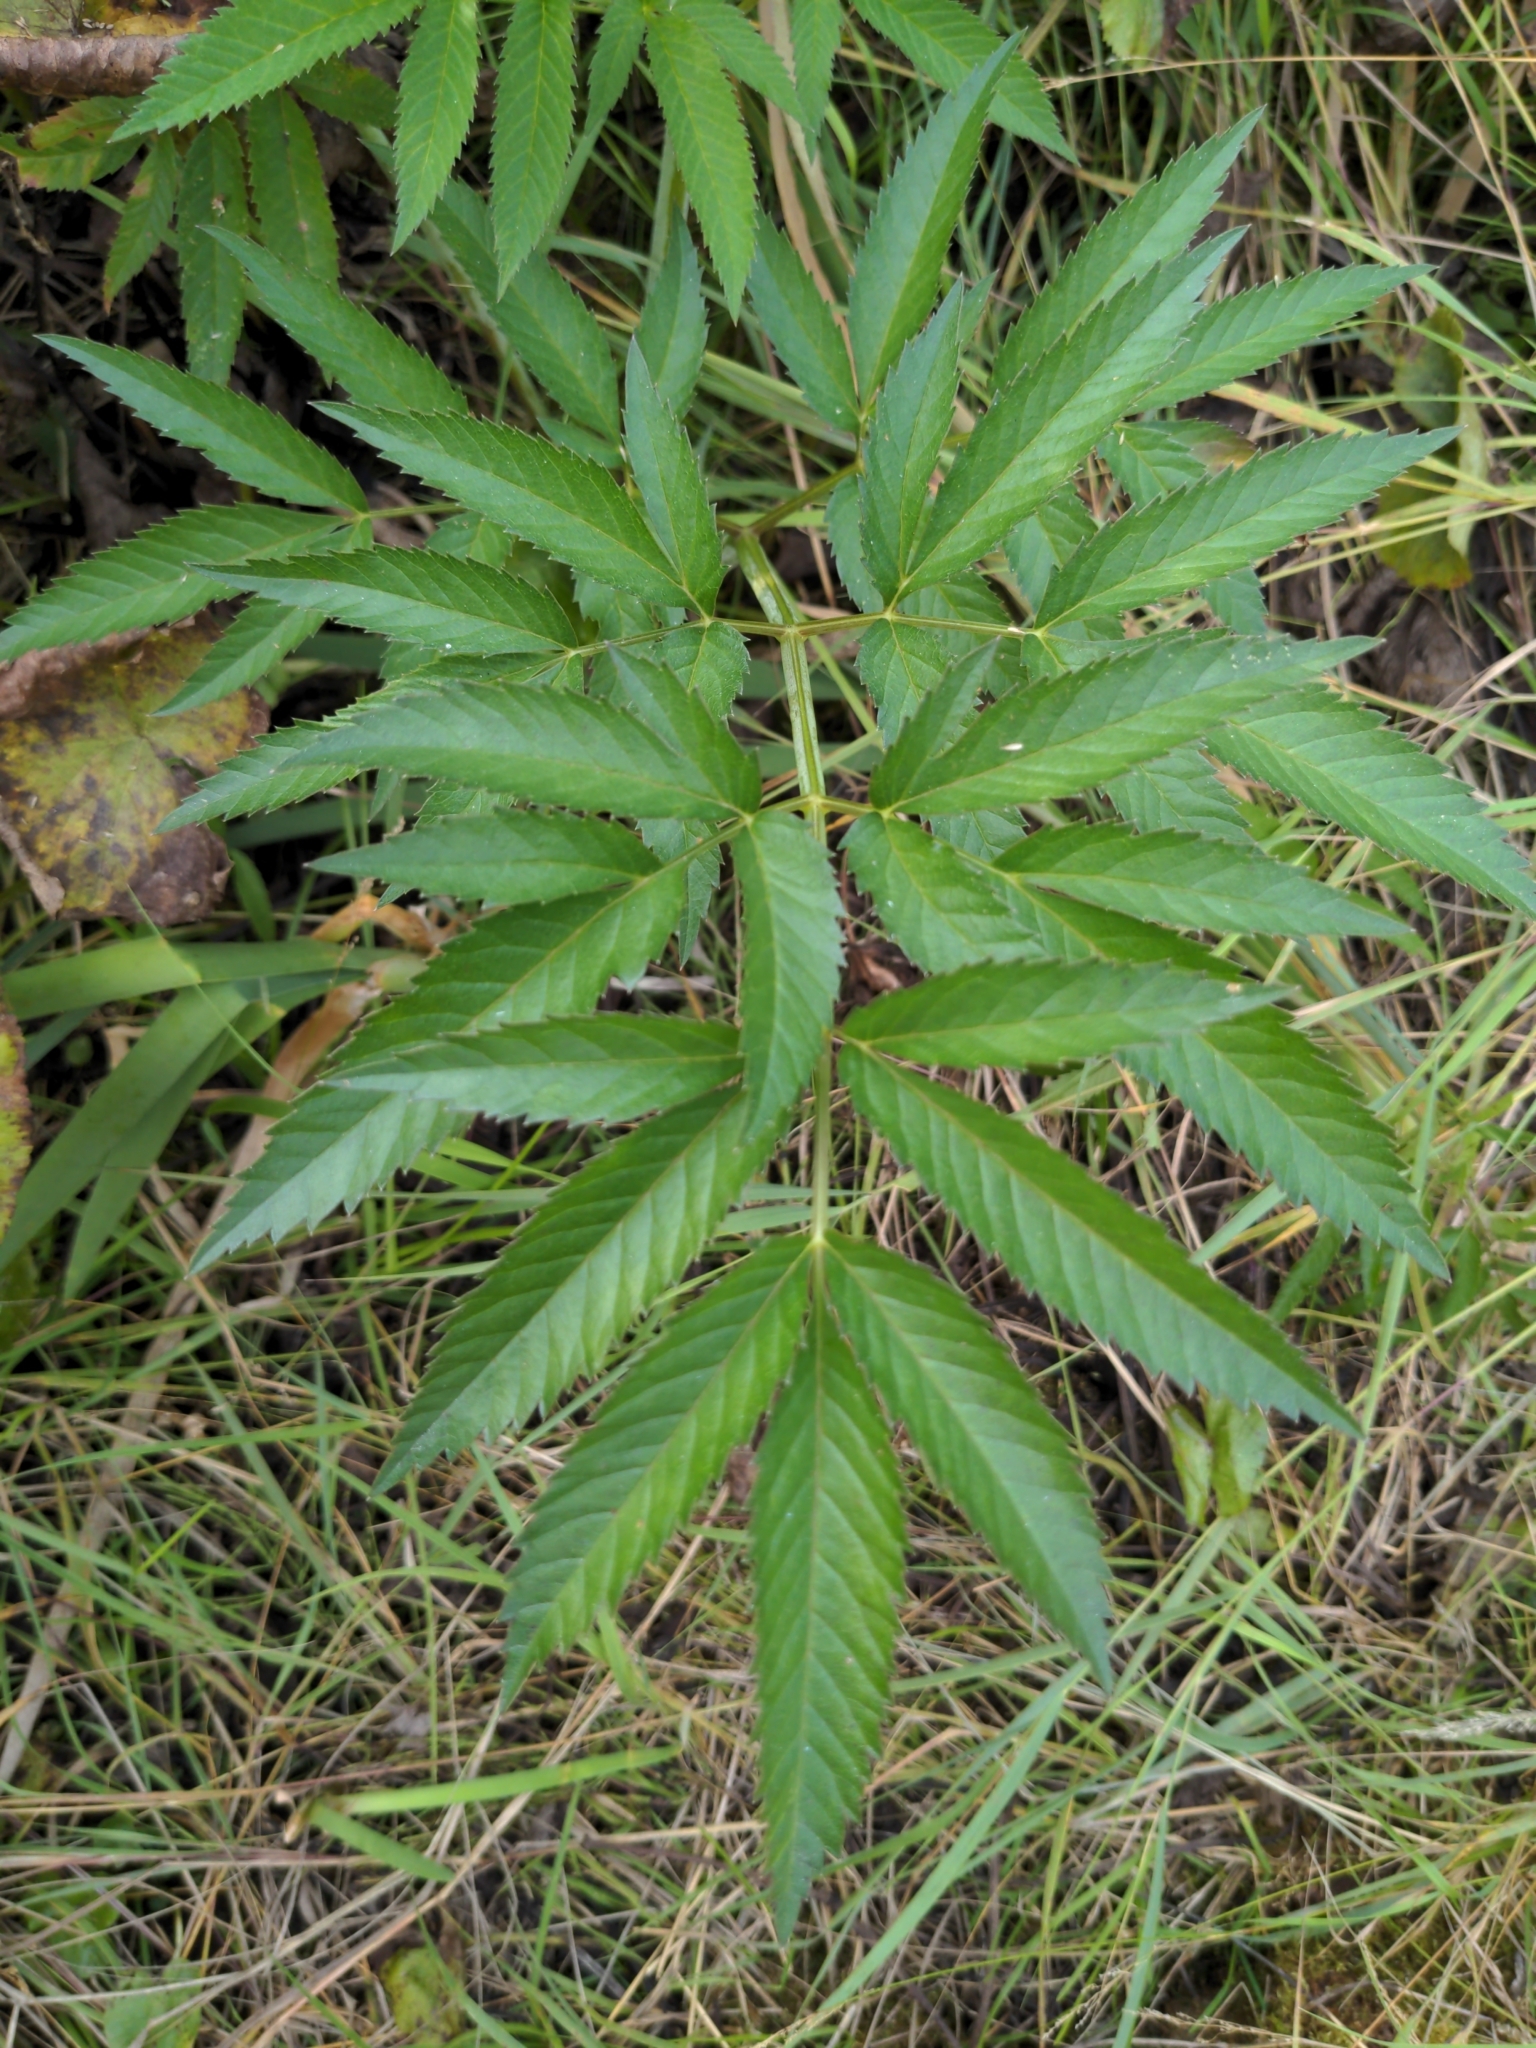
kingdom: Plantae
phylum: Tracheophyta
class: Magnoliopsida
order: Apiales
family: Apiaceae
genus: Cicuta
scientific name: Cicuta maculata
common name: Spotted cowbane
